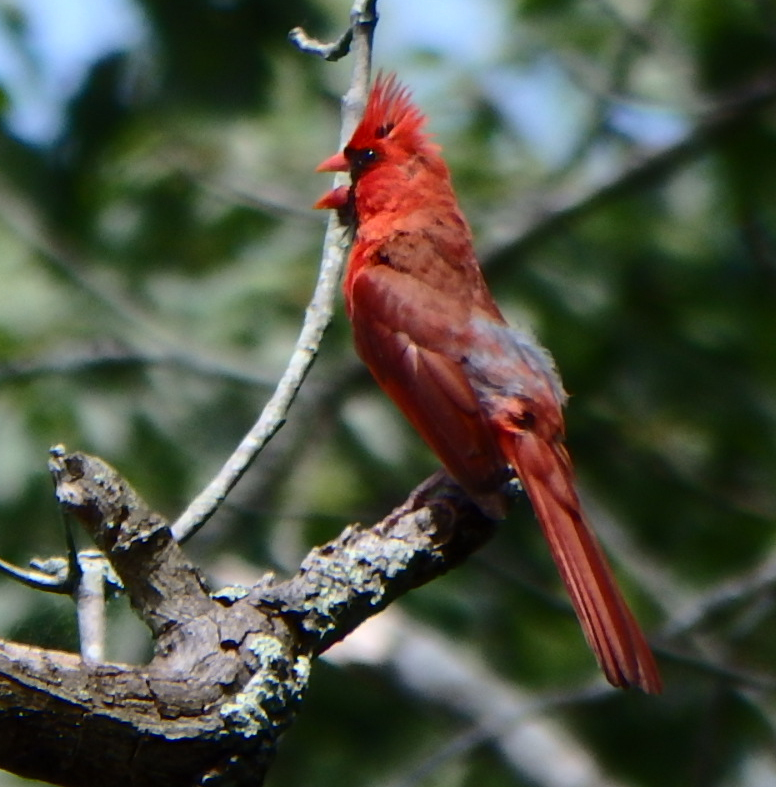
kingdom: Animalia
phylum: Chordata
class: Aves
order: Passeriformes
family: Cardinalidae
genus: Cardinalis
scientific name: Cardinalis cardinalis
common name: Northern cardinal
